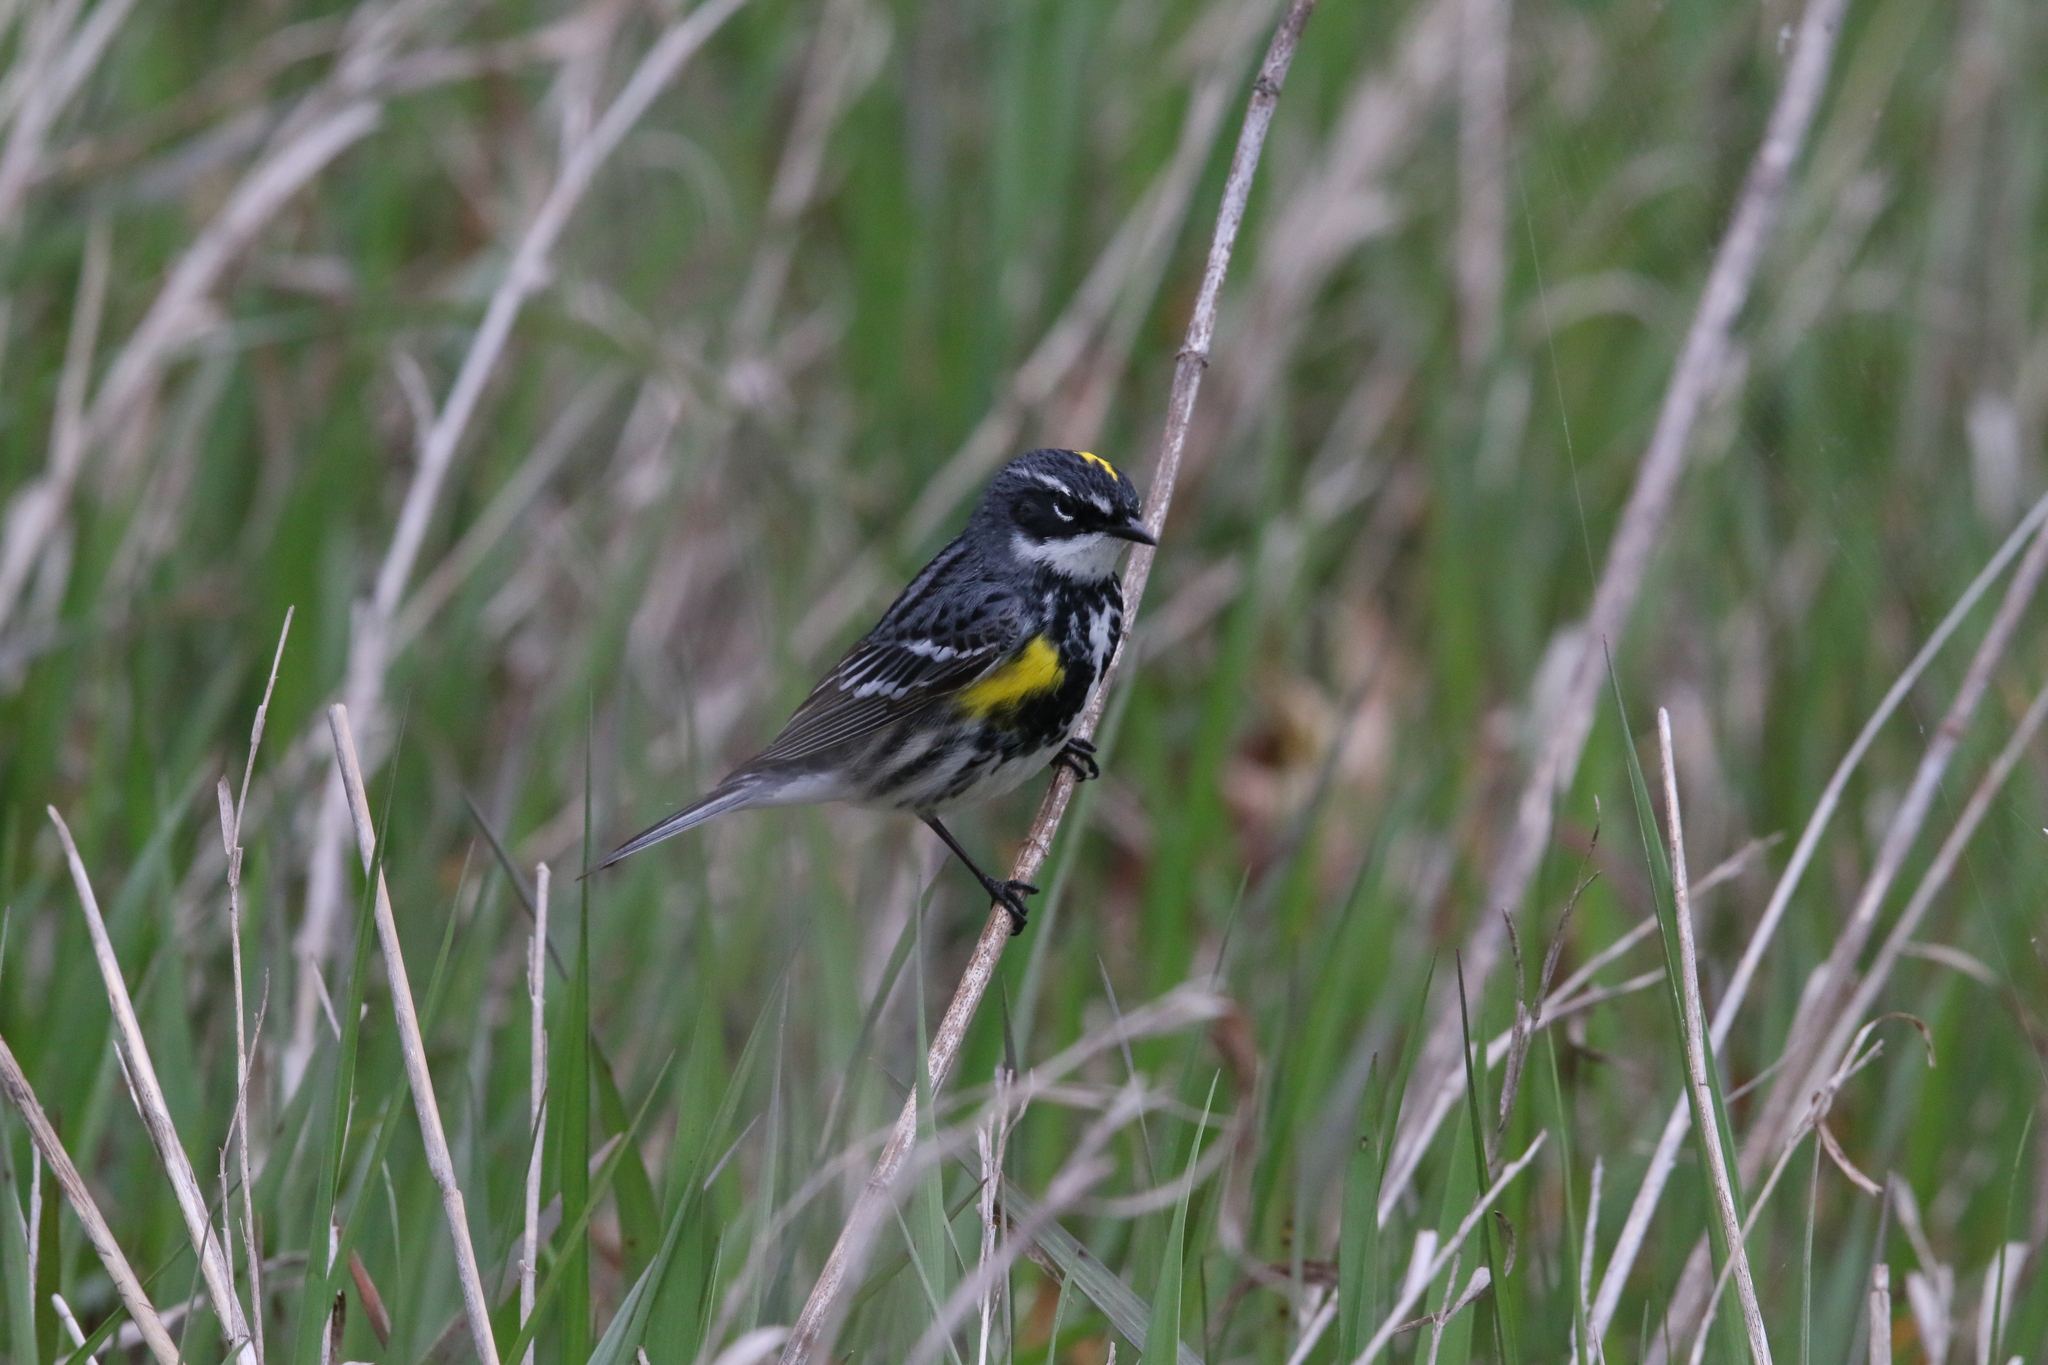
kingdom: Animalia
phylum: Chordata
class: Aves
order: Passeriformes
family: Parulidae
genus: Setophaga
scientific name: Setophaga coronata
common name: Myrtle warbler
